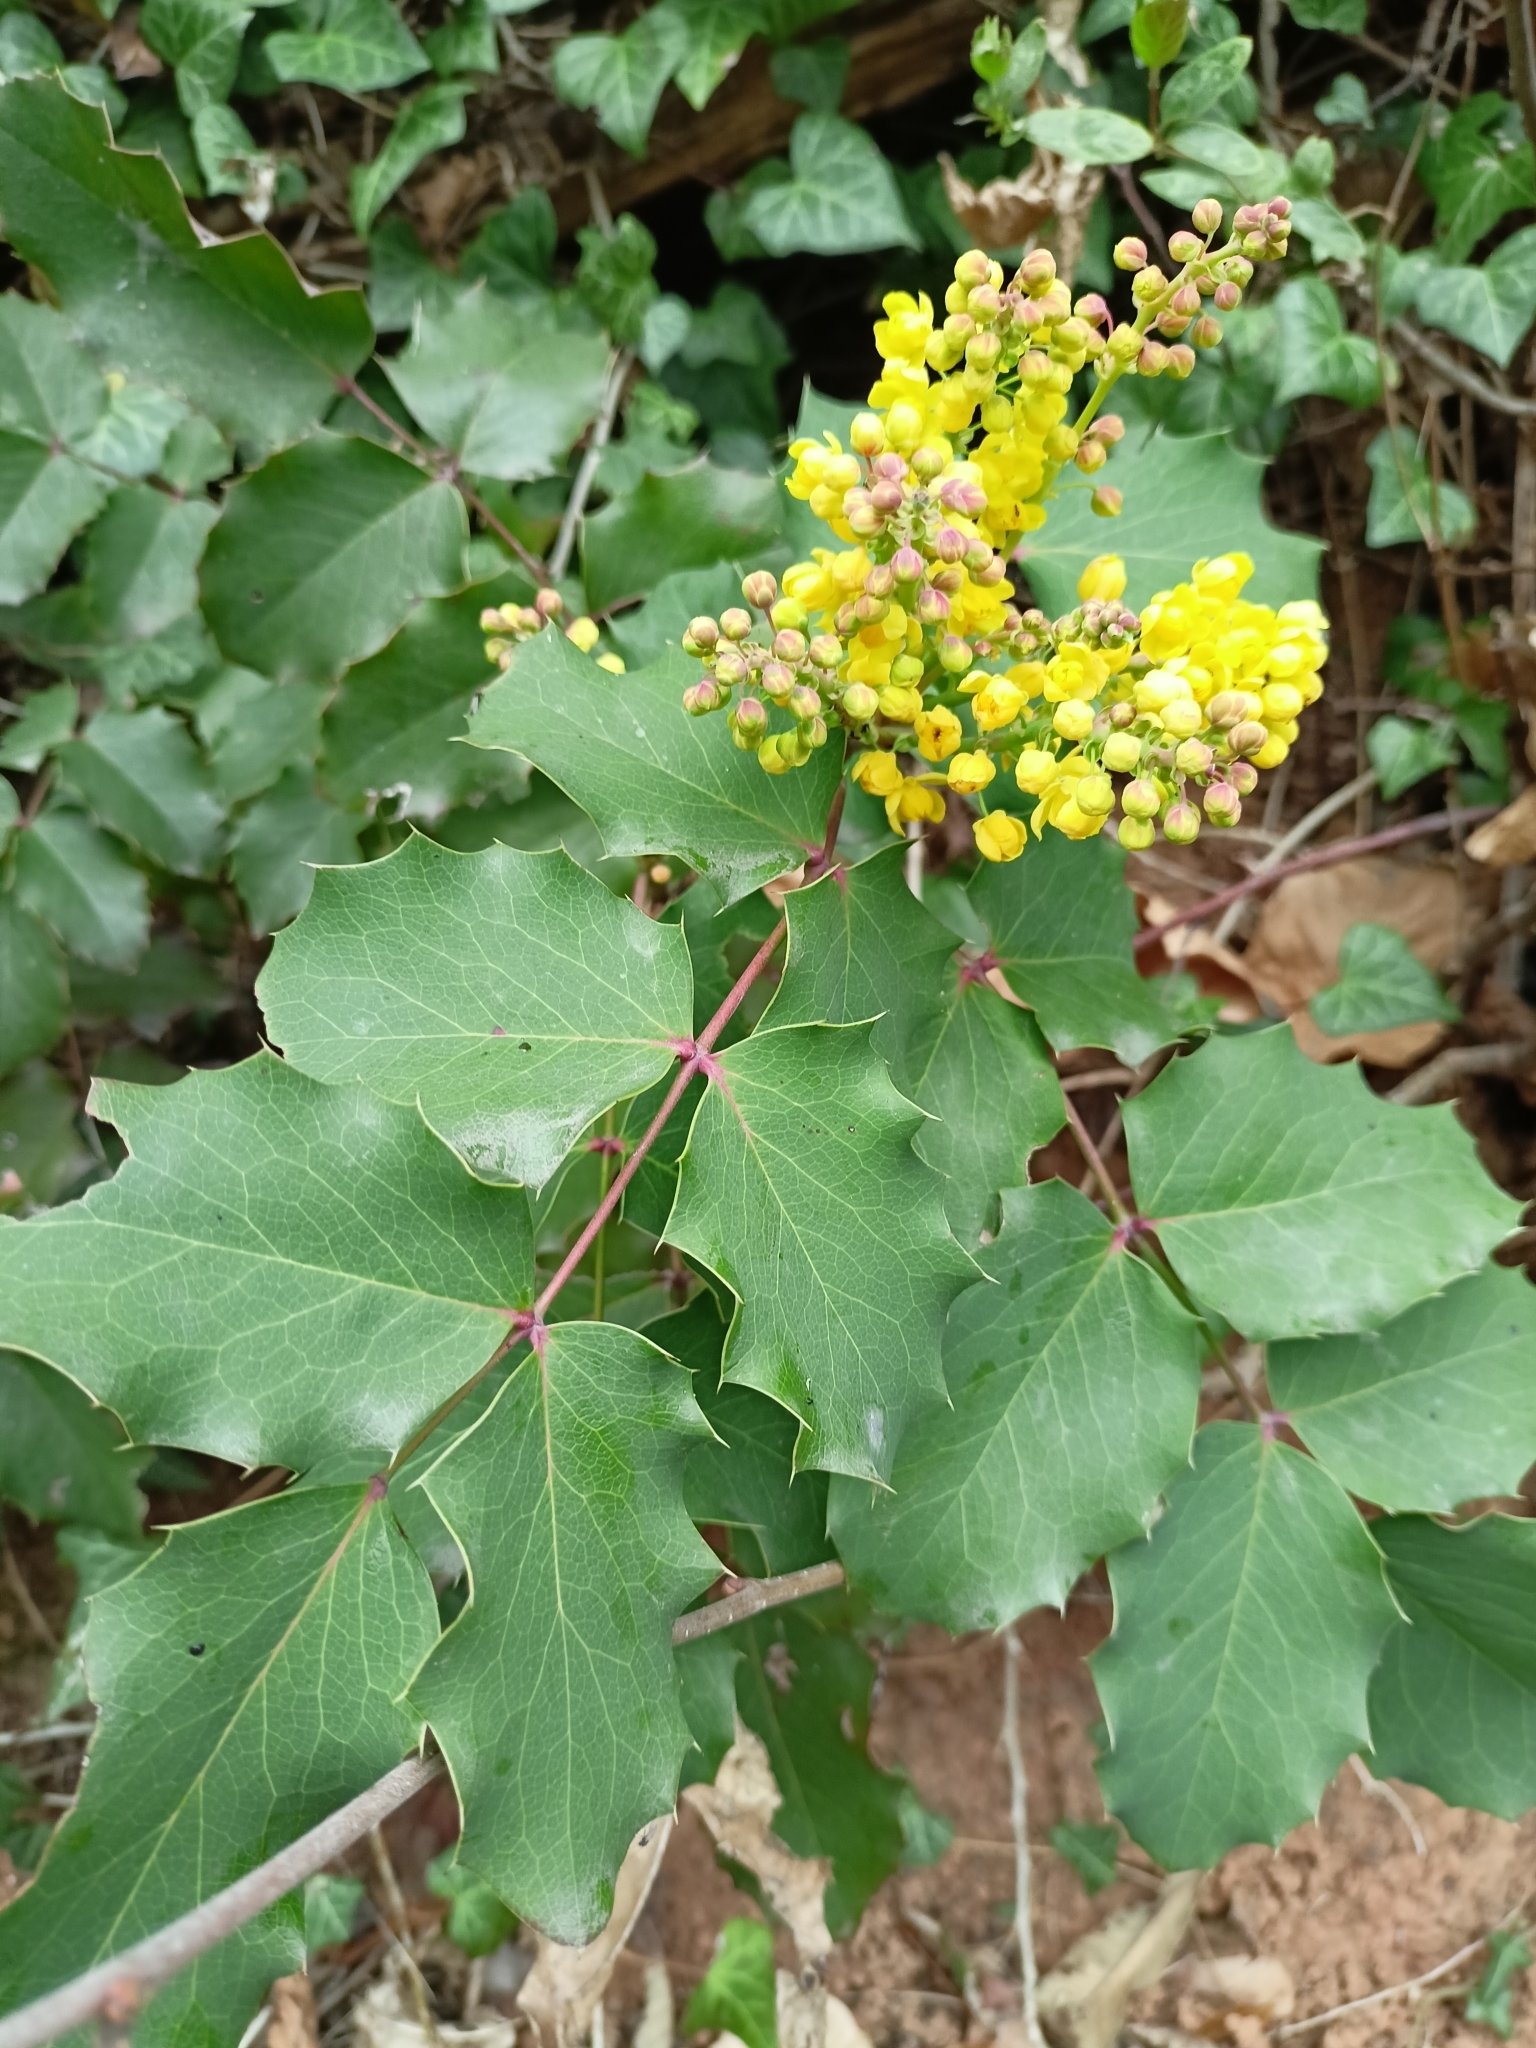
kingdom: Plantae
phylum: Tracheophyta
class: Magnoliopsida
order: Ranunculales
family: Berberidaceae
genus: Mahonia
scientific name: Mahonia aquifolium
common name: Oregon-grape
